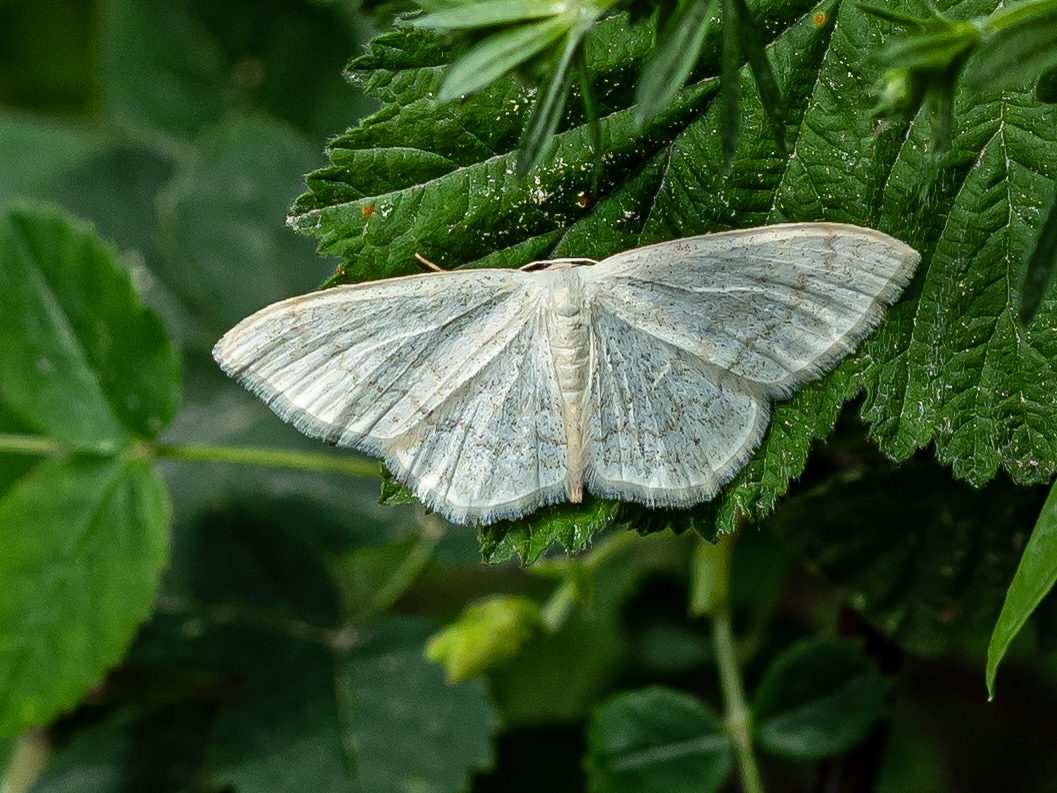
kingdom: Animalia
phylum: Arthropoda
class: Insecta
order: Lepidoptera
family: Geometridae
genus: Scopula
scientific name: Scopula floslactata
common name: Cream wave
